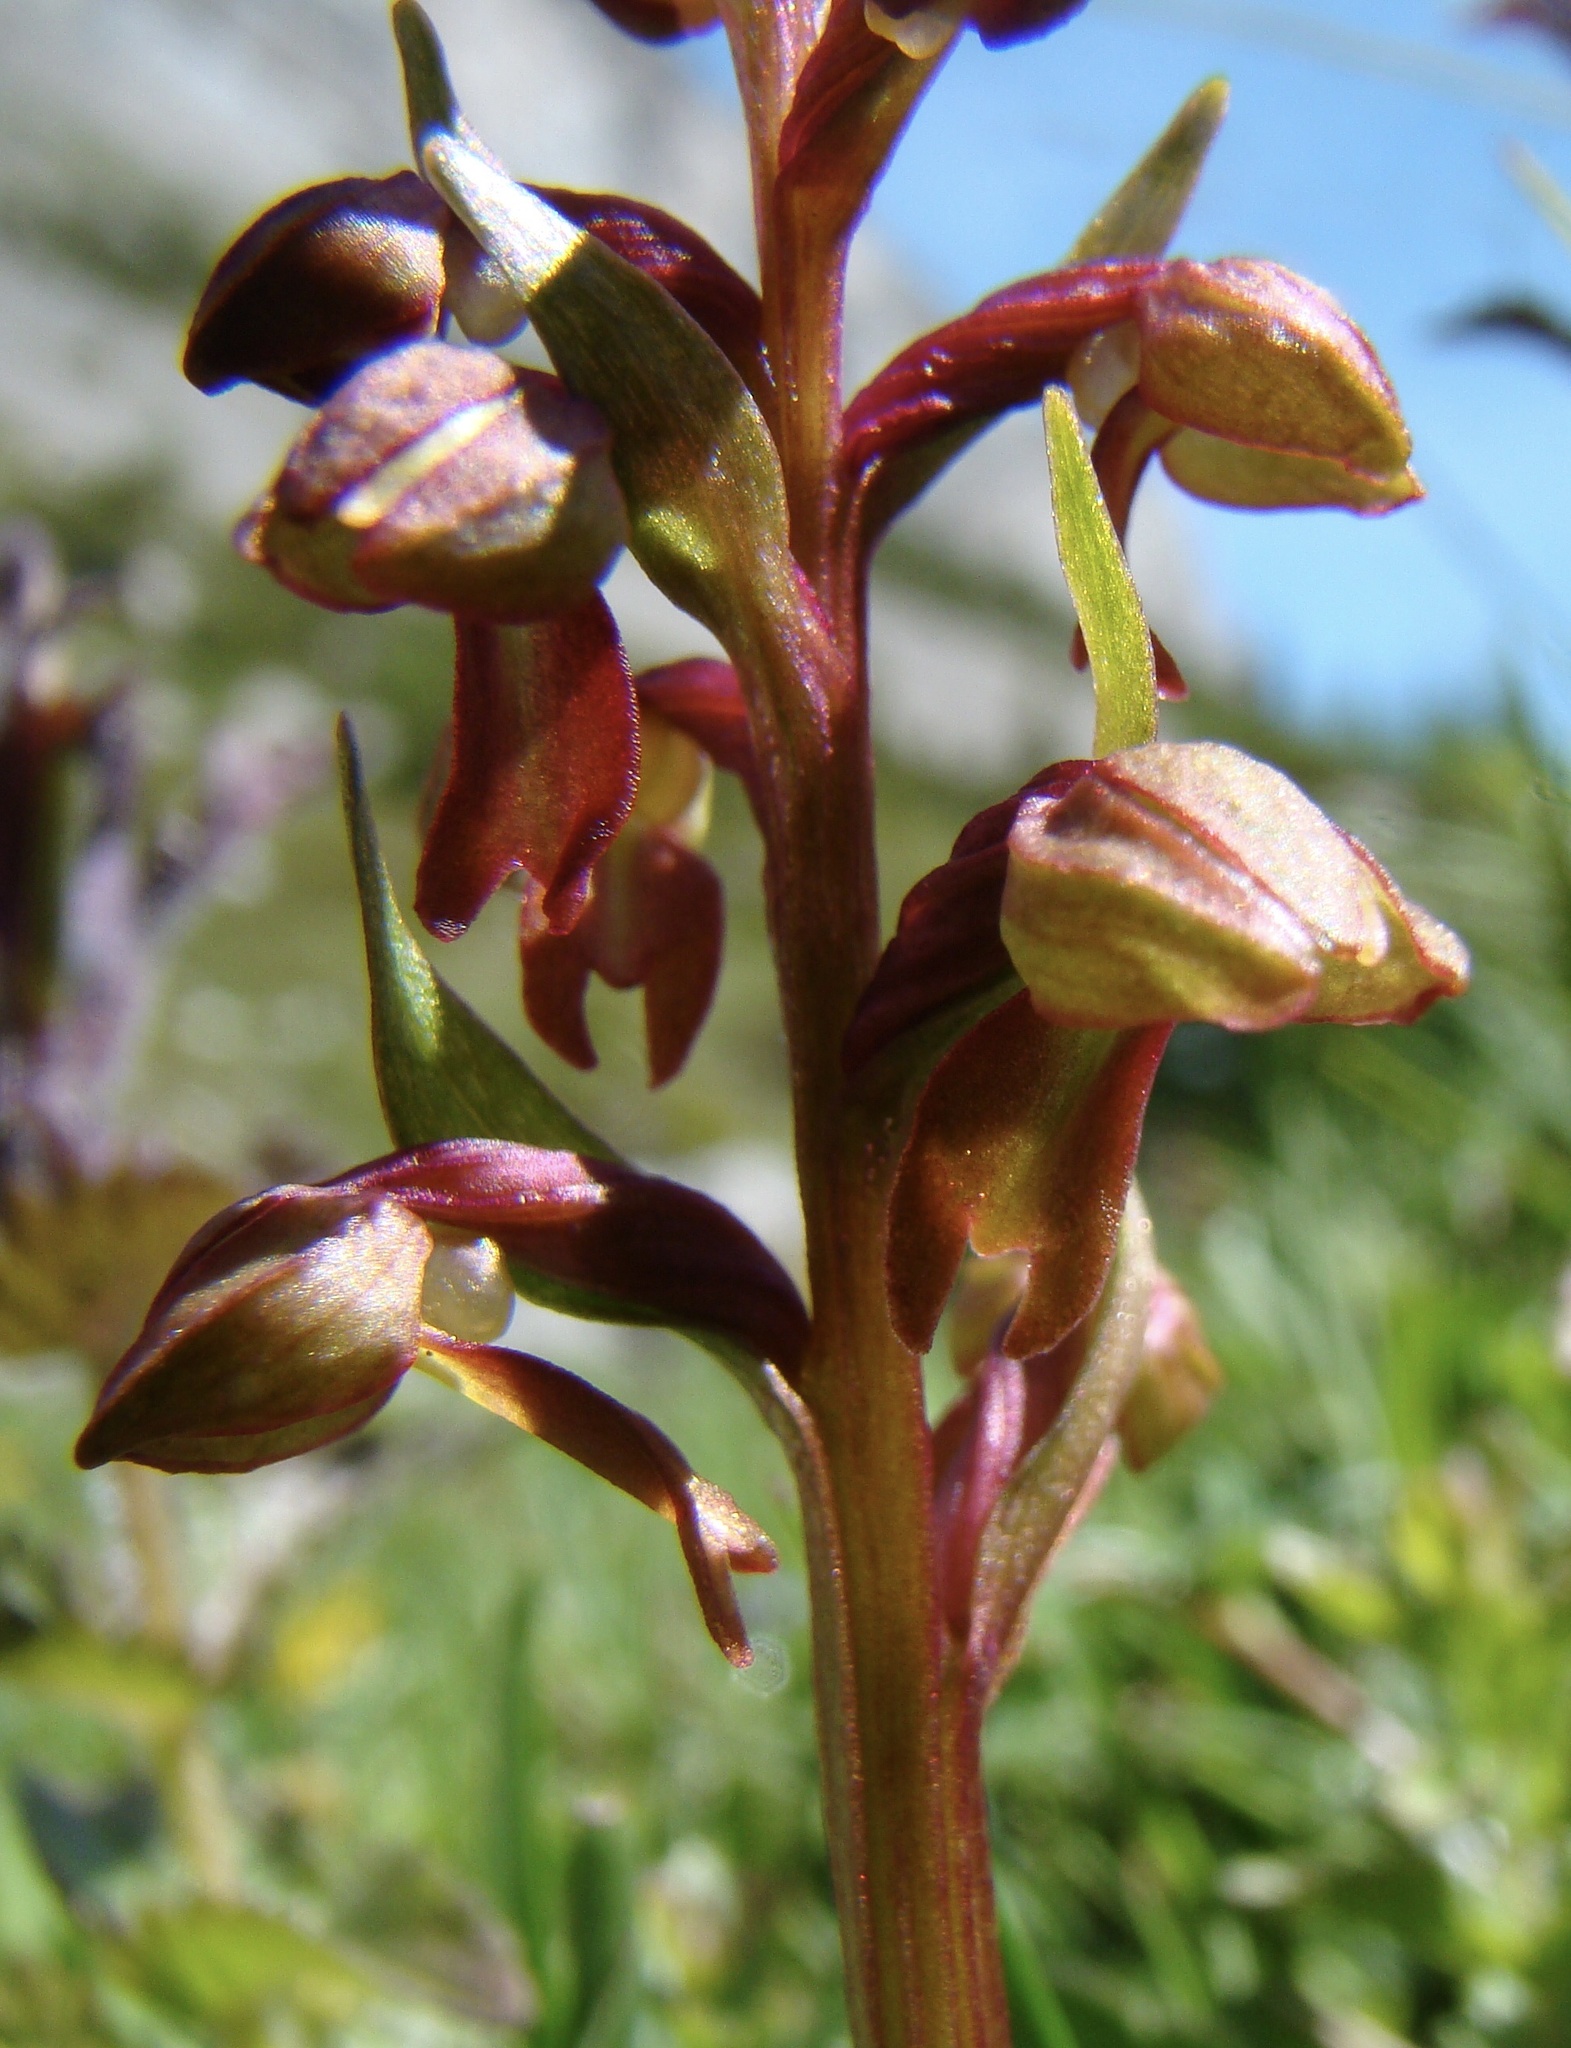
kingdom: Plantae
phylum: Tracheophyta
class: Liliopsida
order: Asparagales
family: Orchidaceae
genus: Dactylorhiza
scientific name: Dactylorhiza viridis
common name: Longbract frog orchid
